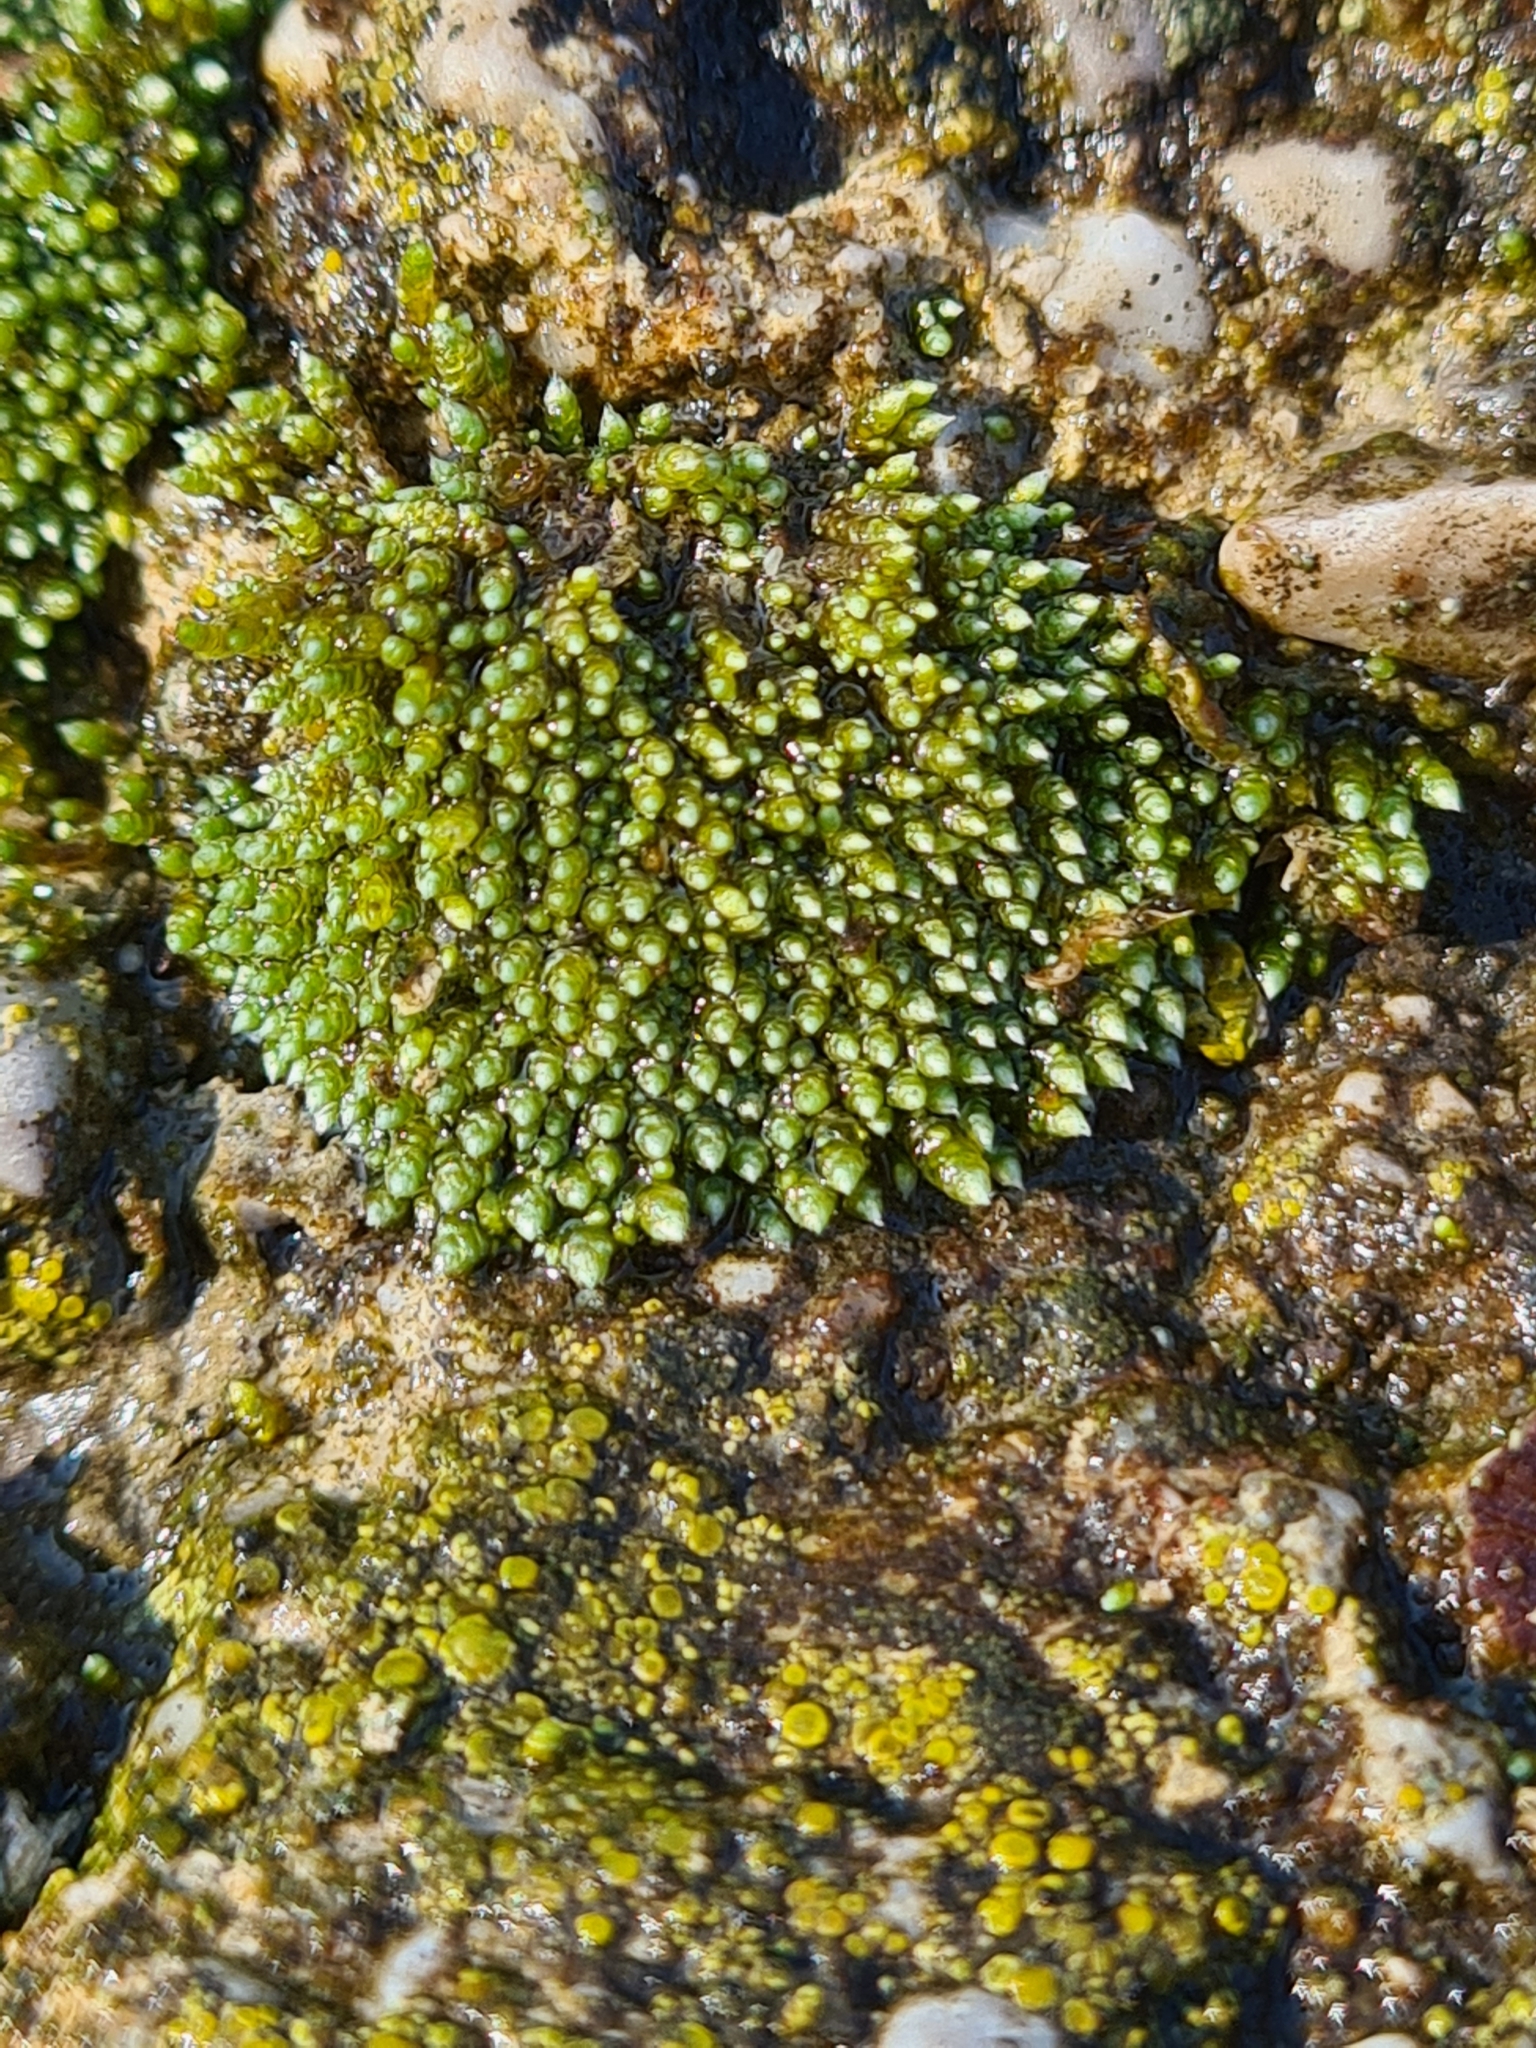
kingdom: Plantae
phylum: Bryophyta
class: Bryopsida
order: Bryales
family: Bryaceae
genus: Bryum
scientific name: Bryum argenteum
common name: Silver-moss
